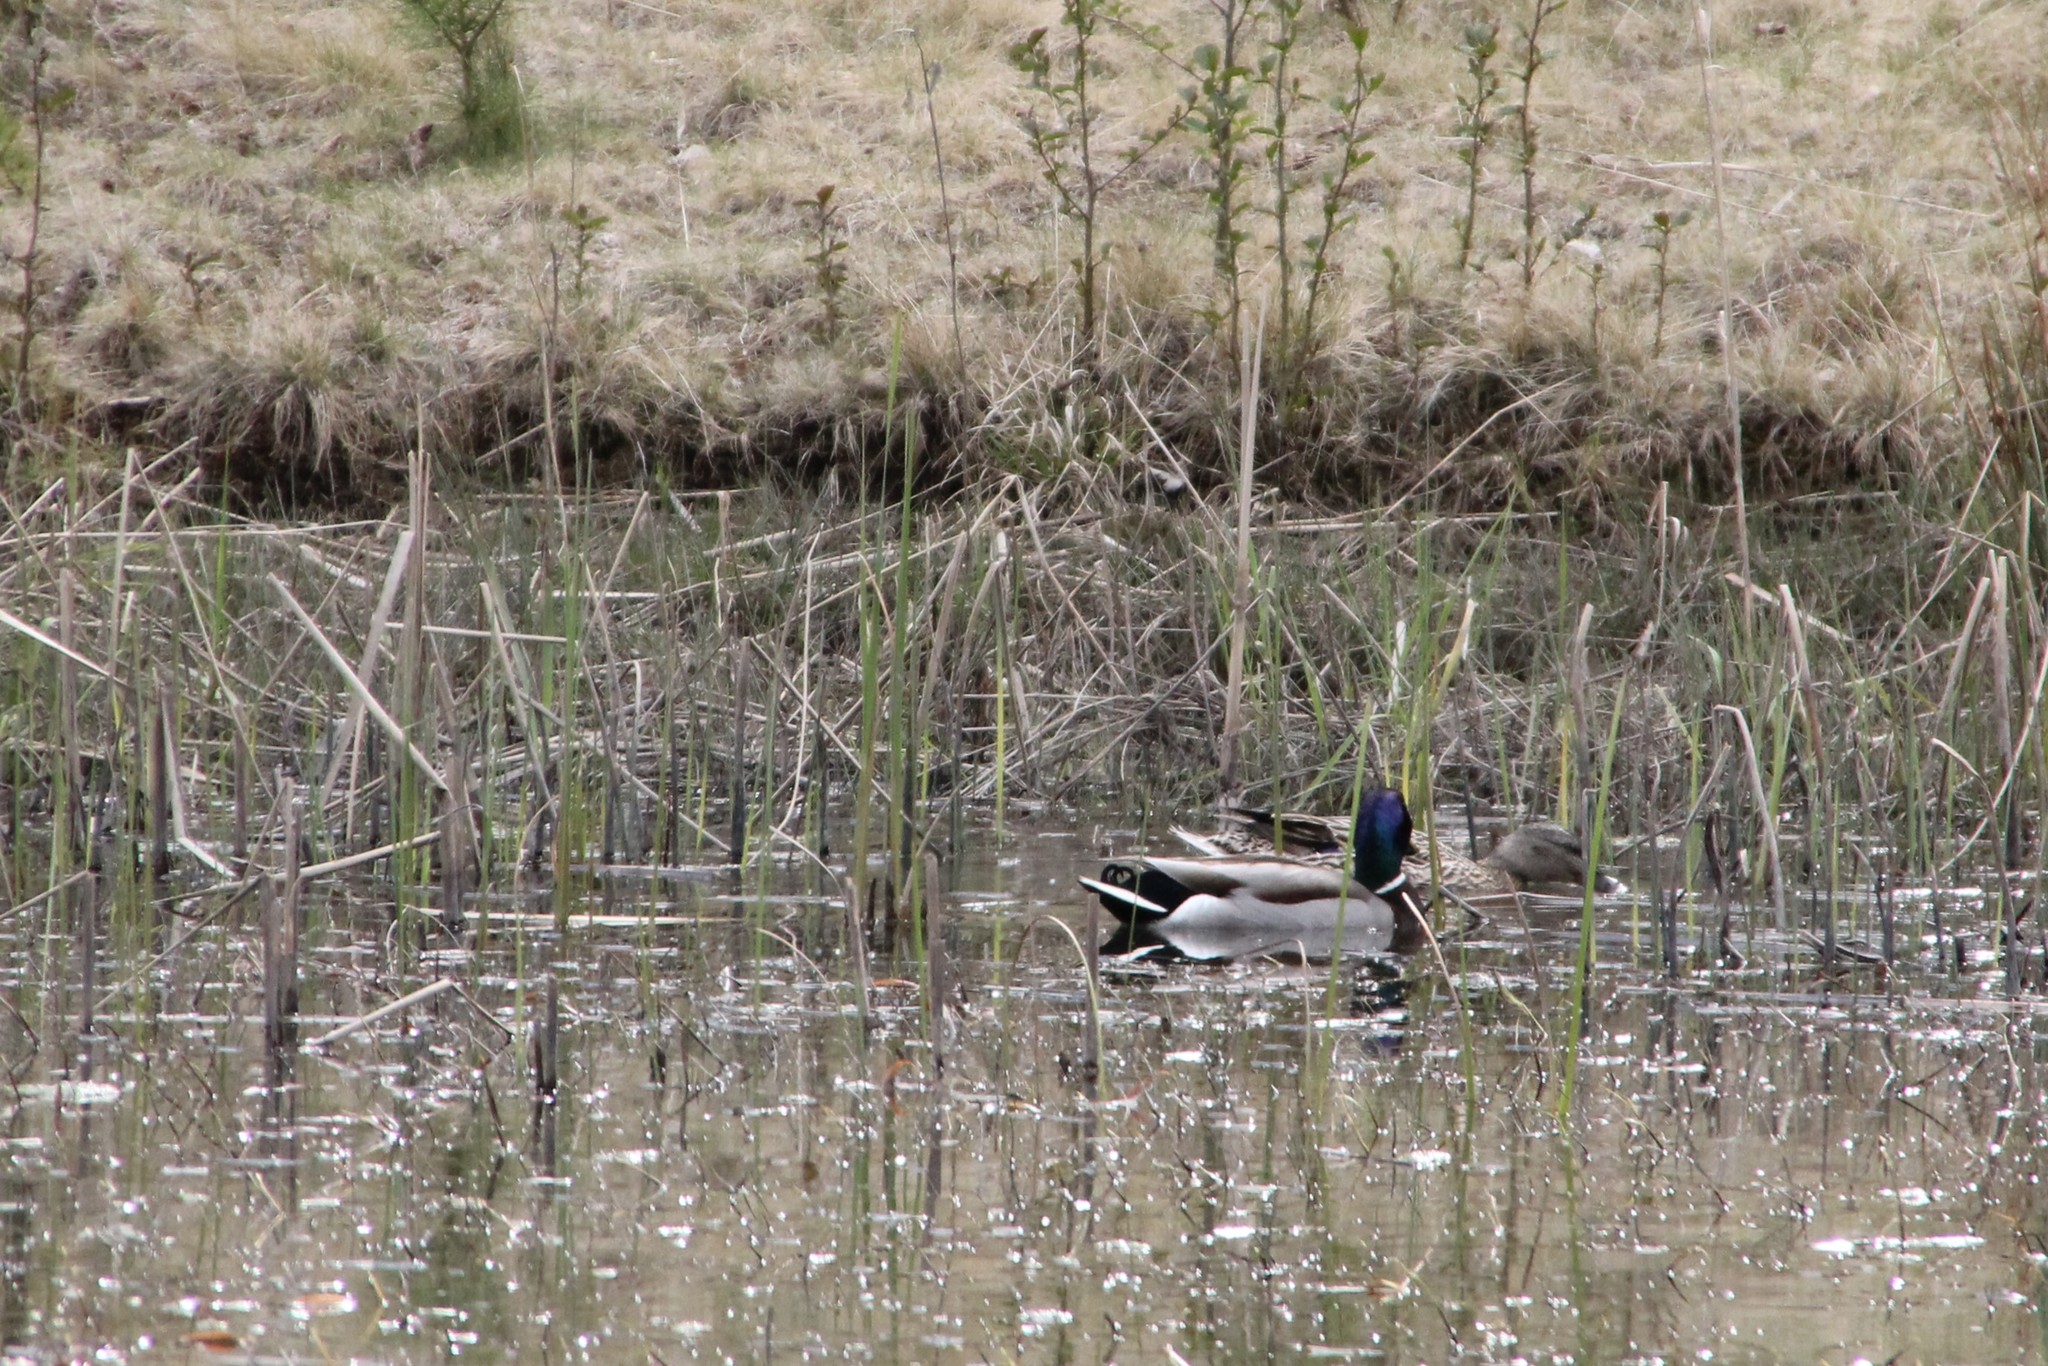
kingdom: Animalia
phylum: Chordata
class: Aves
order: Anseriformes
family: Anatidae
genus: Anas
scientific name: Anas platyrhynchos
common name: Mallard
